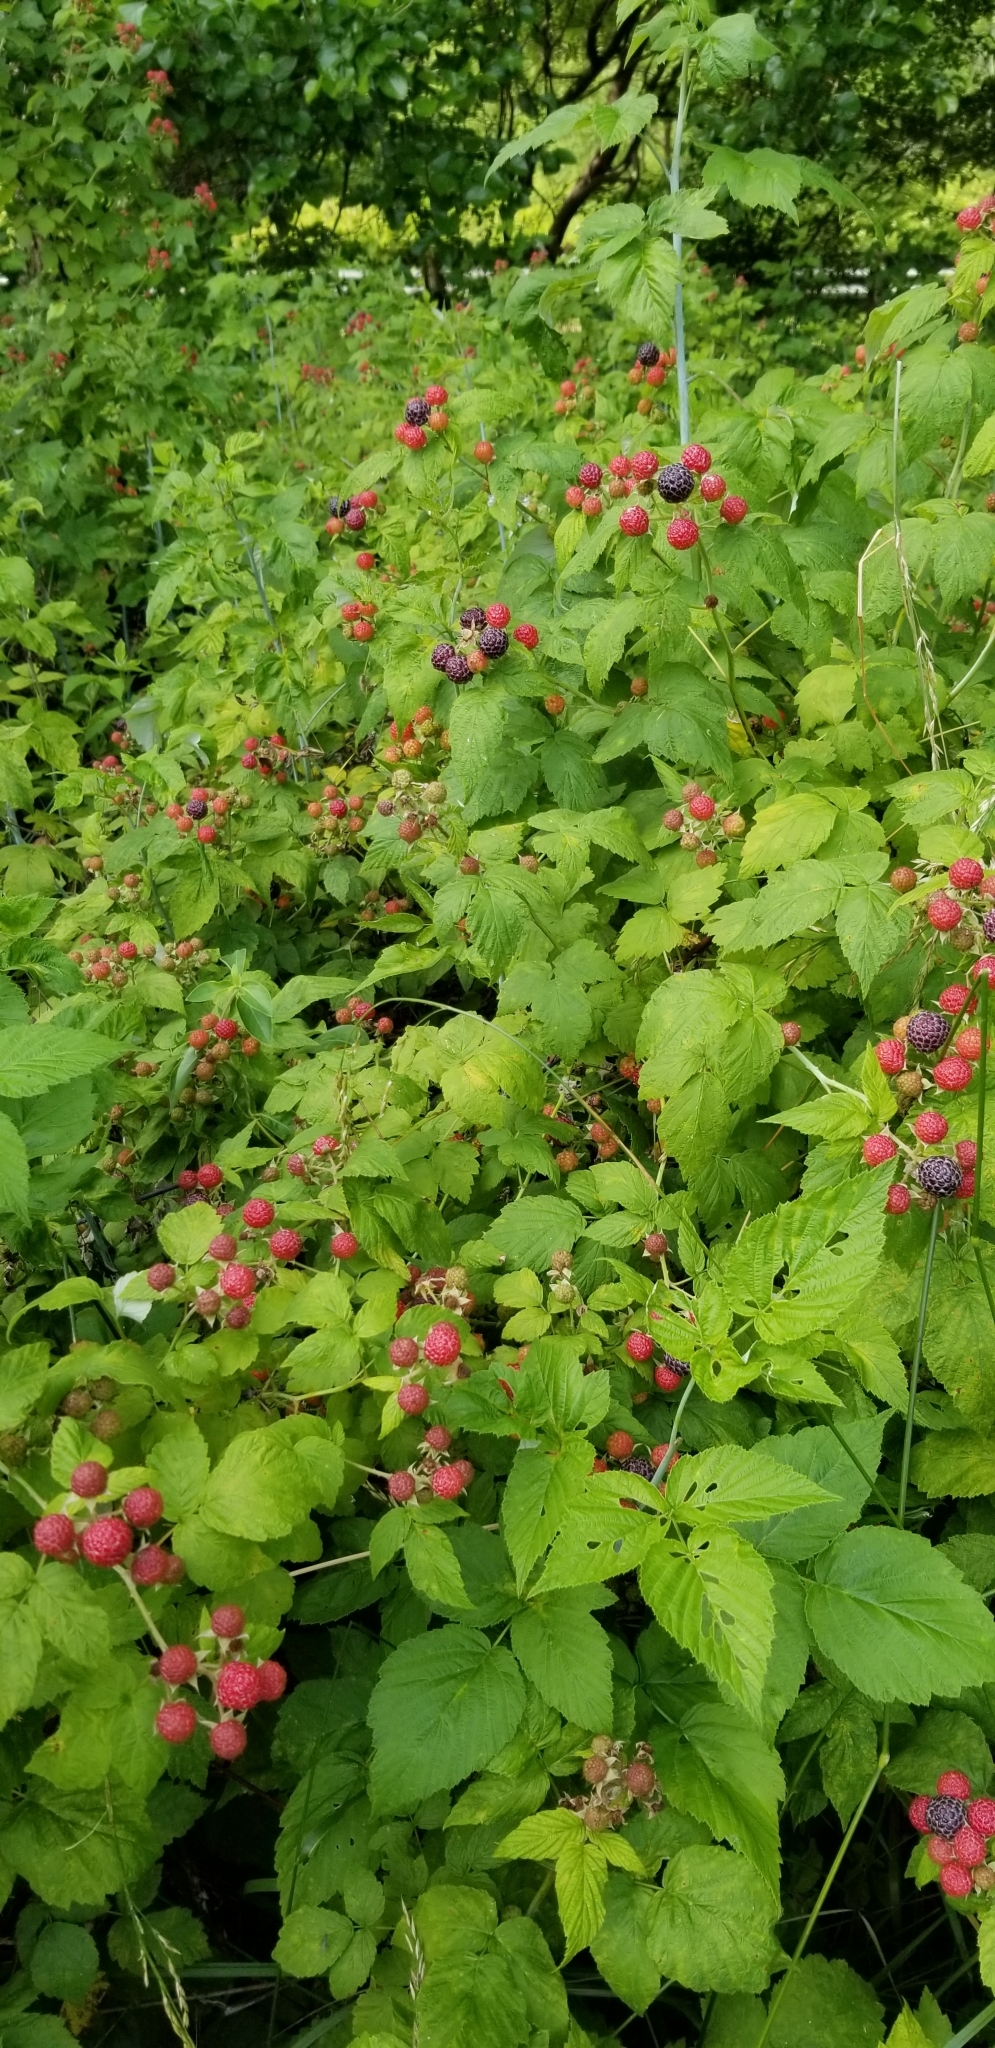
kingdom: Plantae
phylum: Tracheophyta
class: Magnoliopsida
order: Rosales
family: Rosaceae
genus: Rubus
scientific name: Rubus occidentalis
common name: Black raspberry
